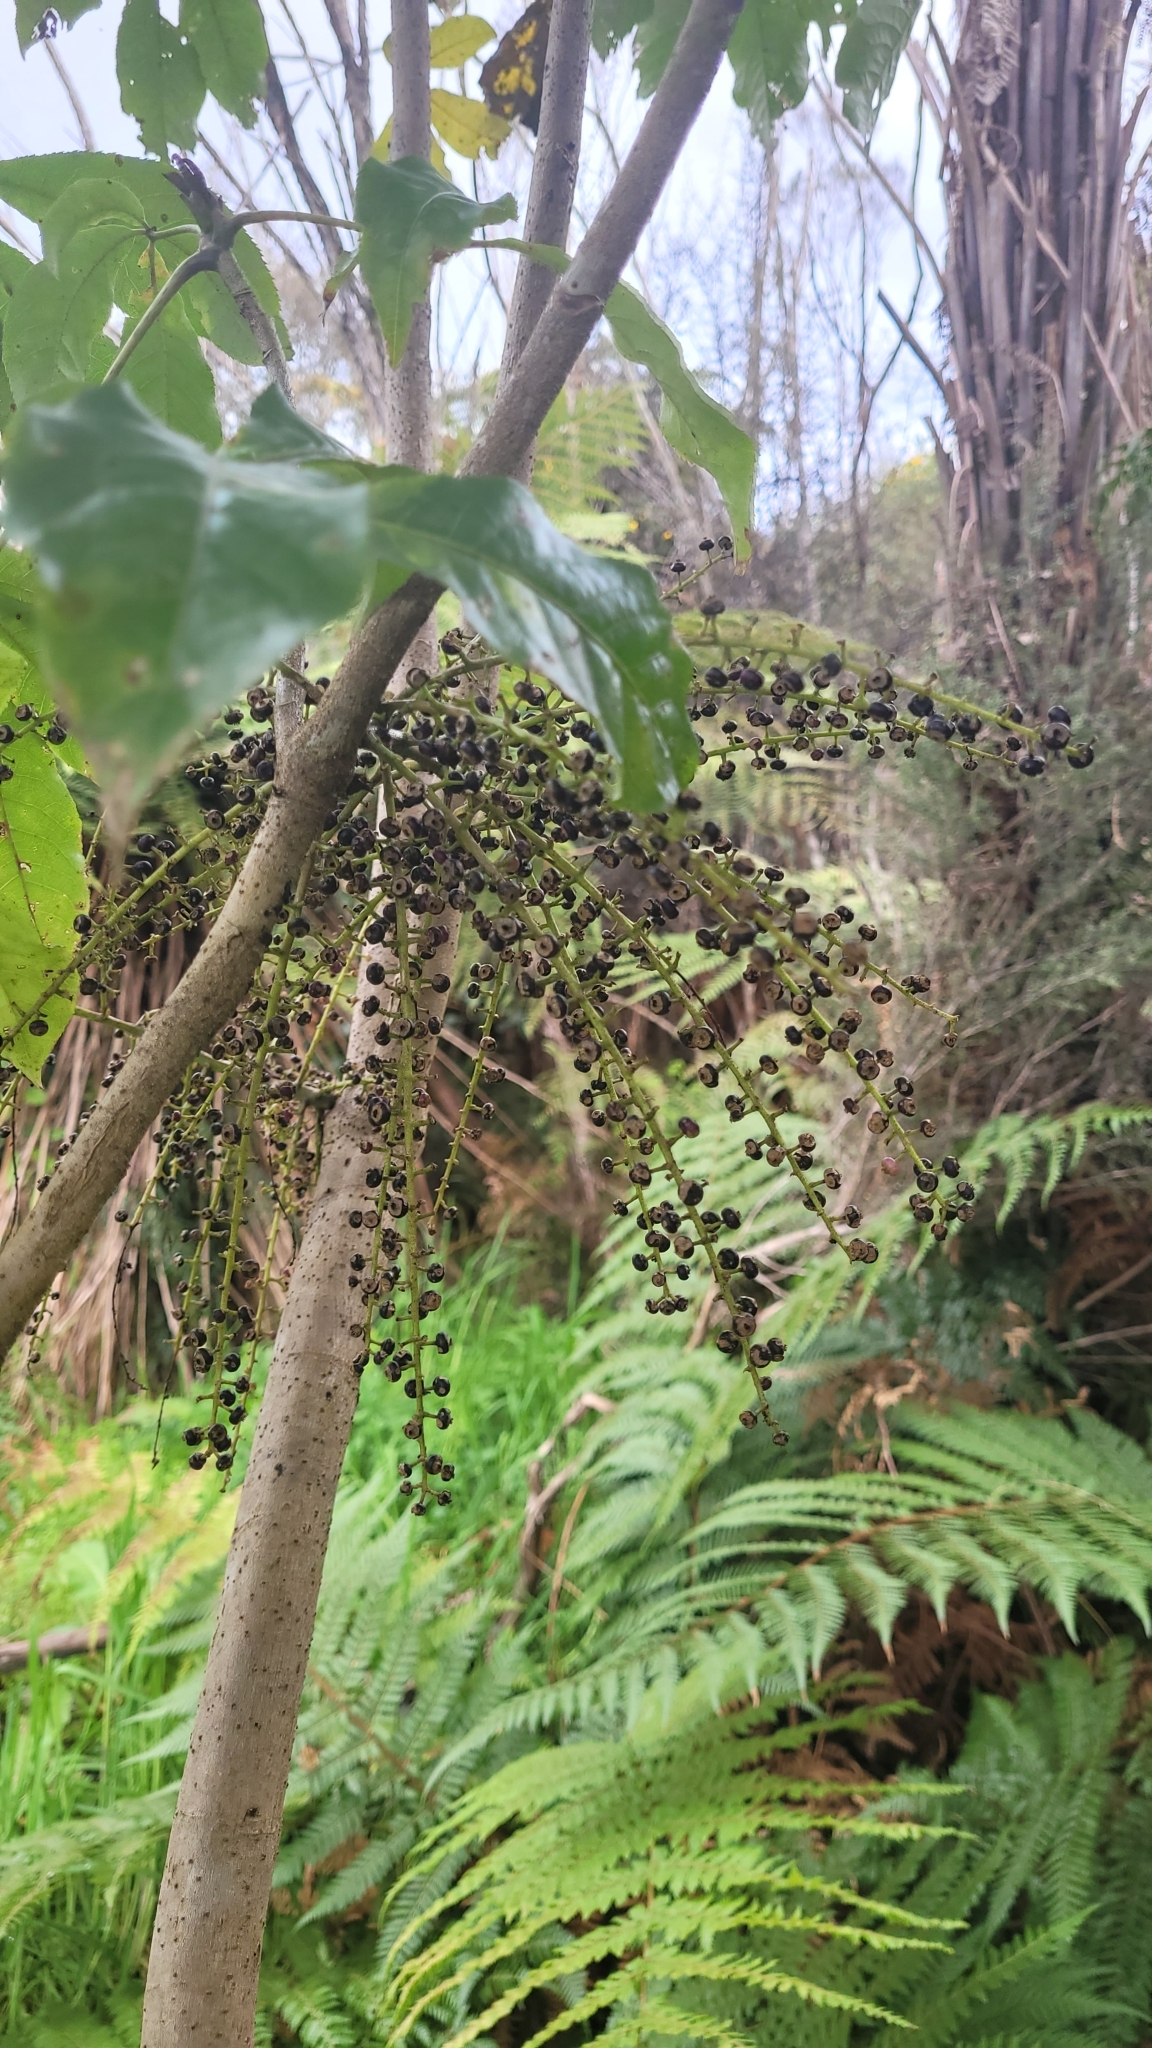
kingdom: Plantae
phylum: Tracheophyta
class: Magnoliopsida
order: Apiales
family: Araliaceae
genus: Schefflera
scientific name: Schefflera digitata
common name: Pate
